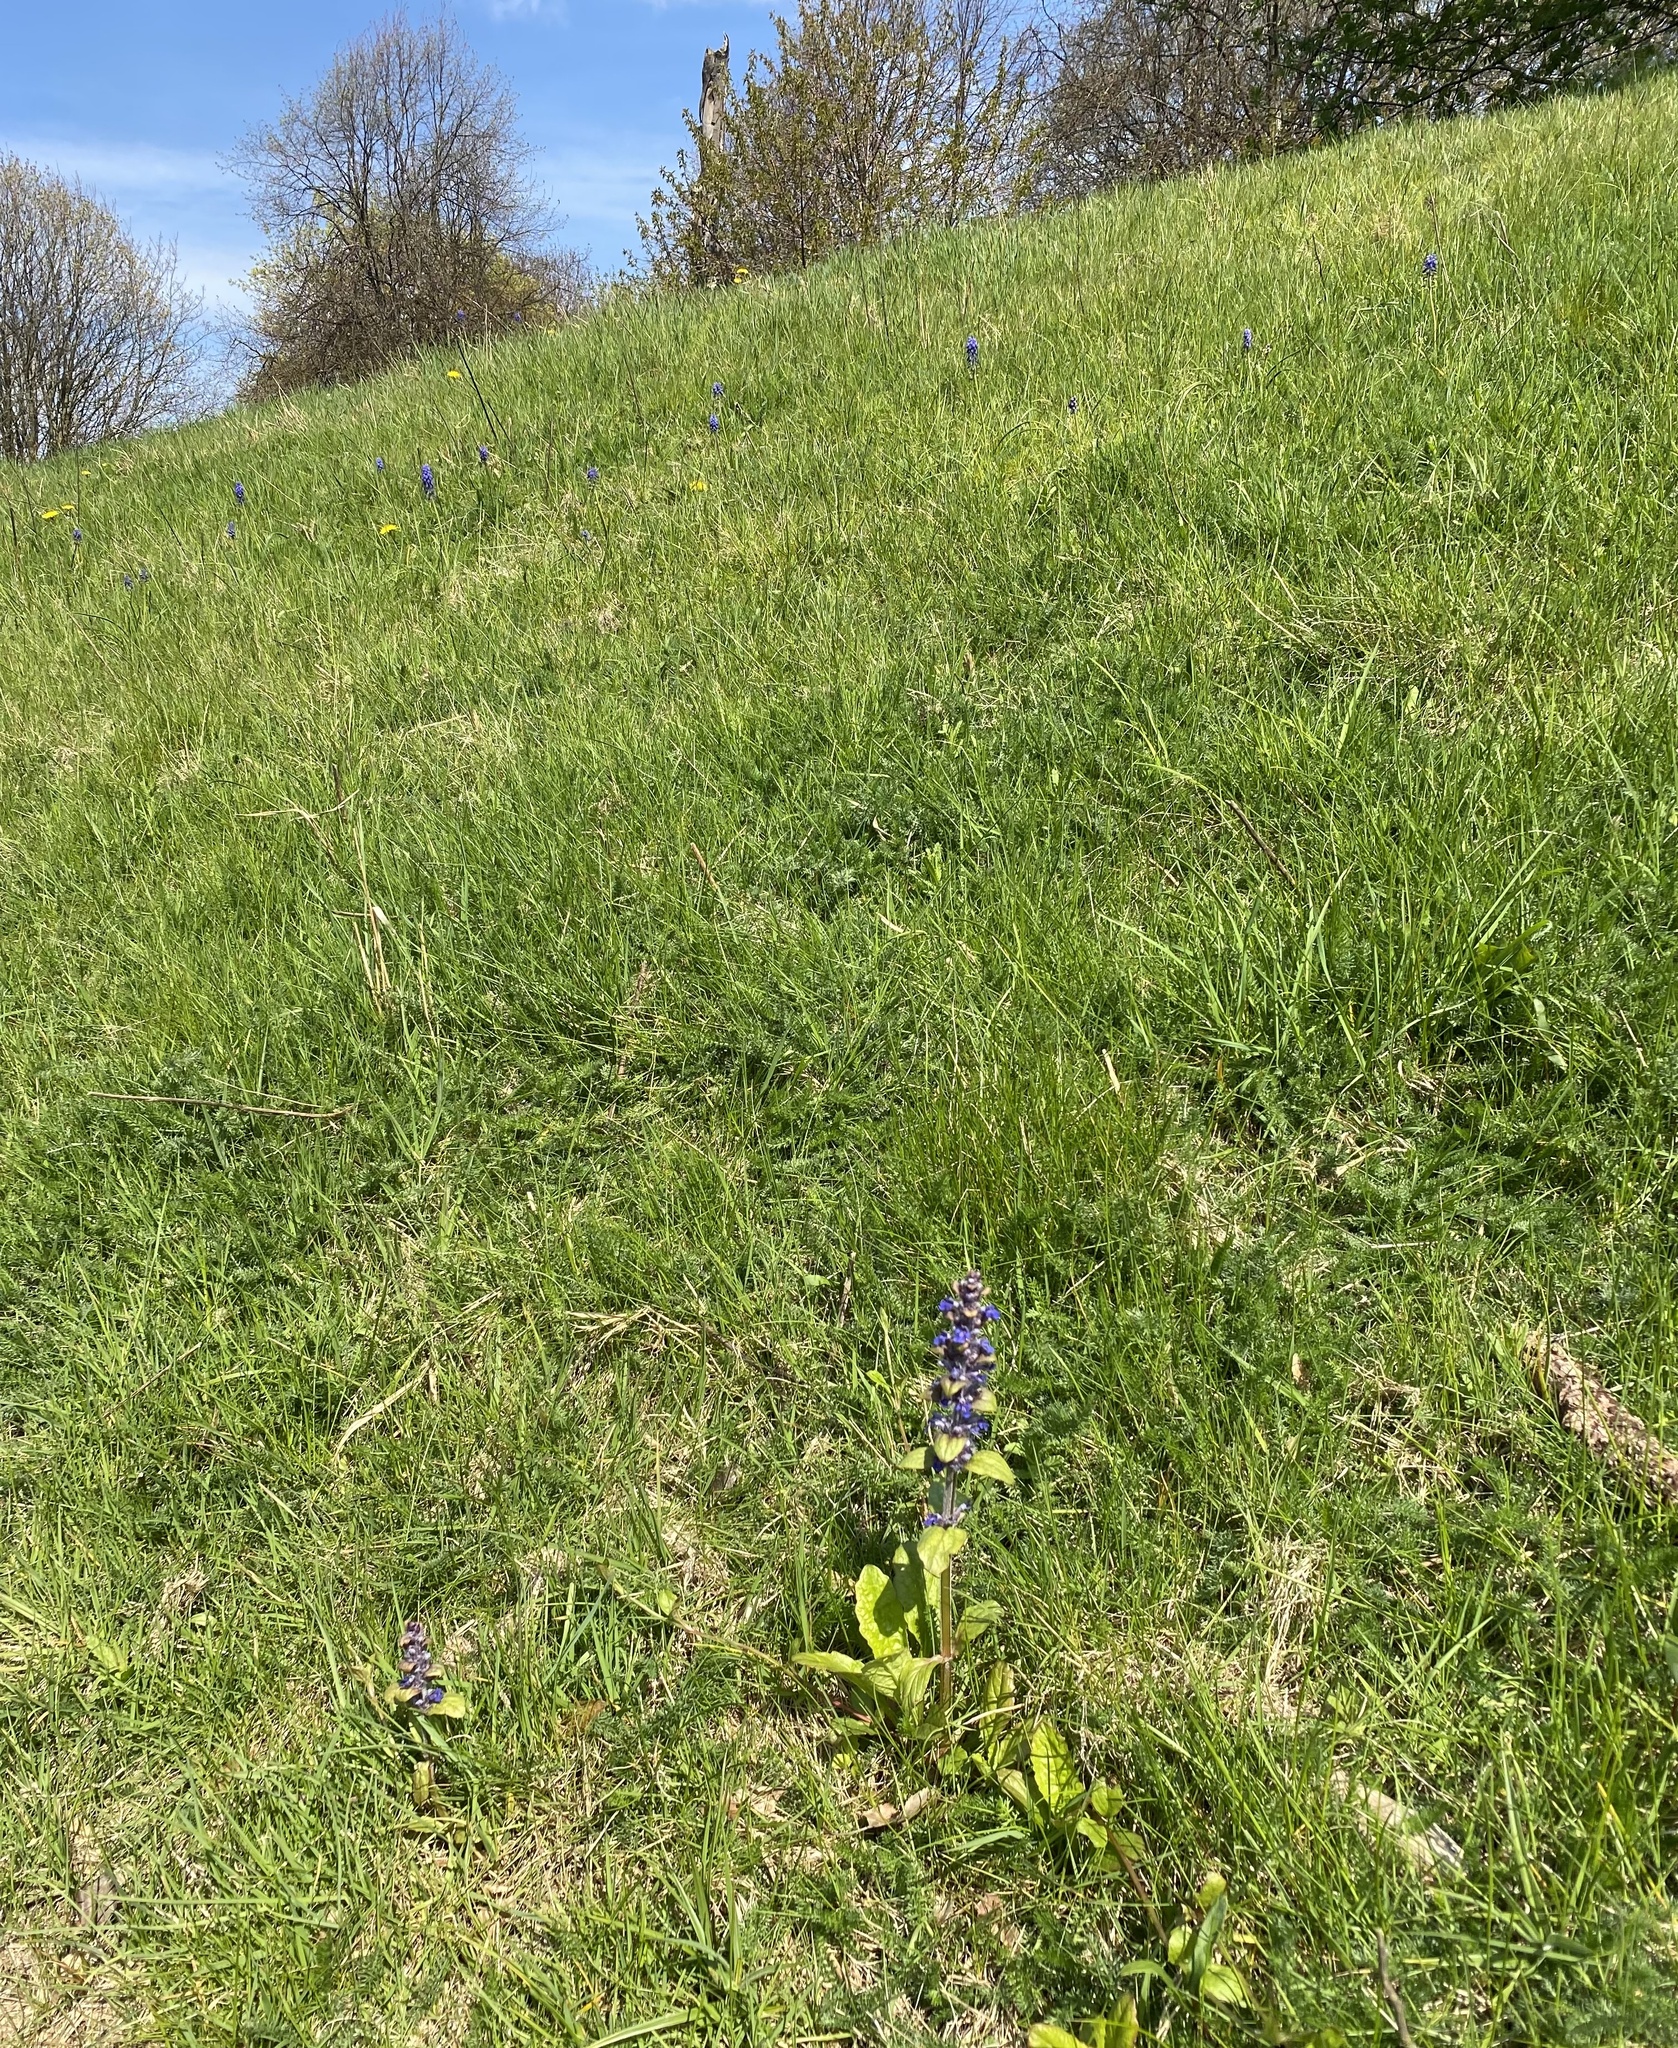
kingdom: Plantae
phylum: Tracheophyta
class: Magnoliopsida
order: Lamiales
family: Lamiaceae
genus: Ajuga
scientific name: Ajuga reptans
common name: Bugle
